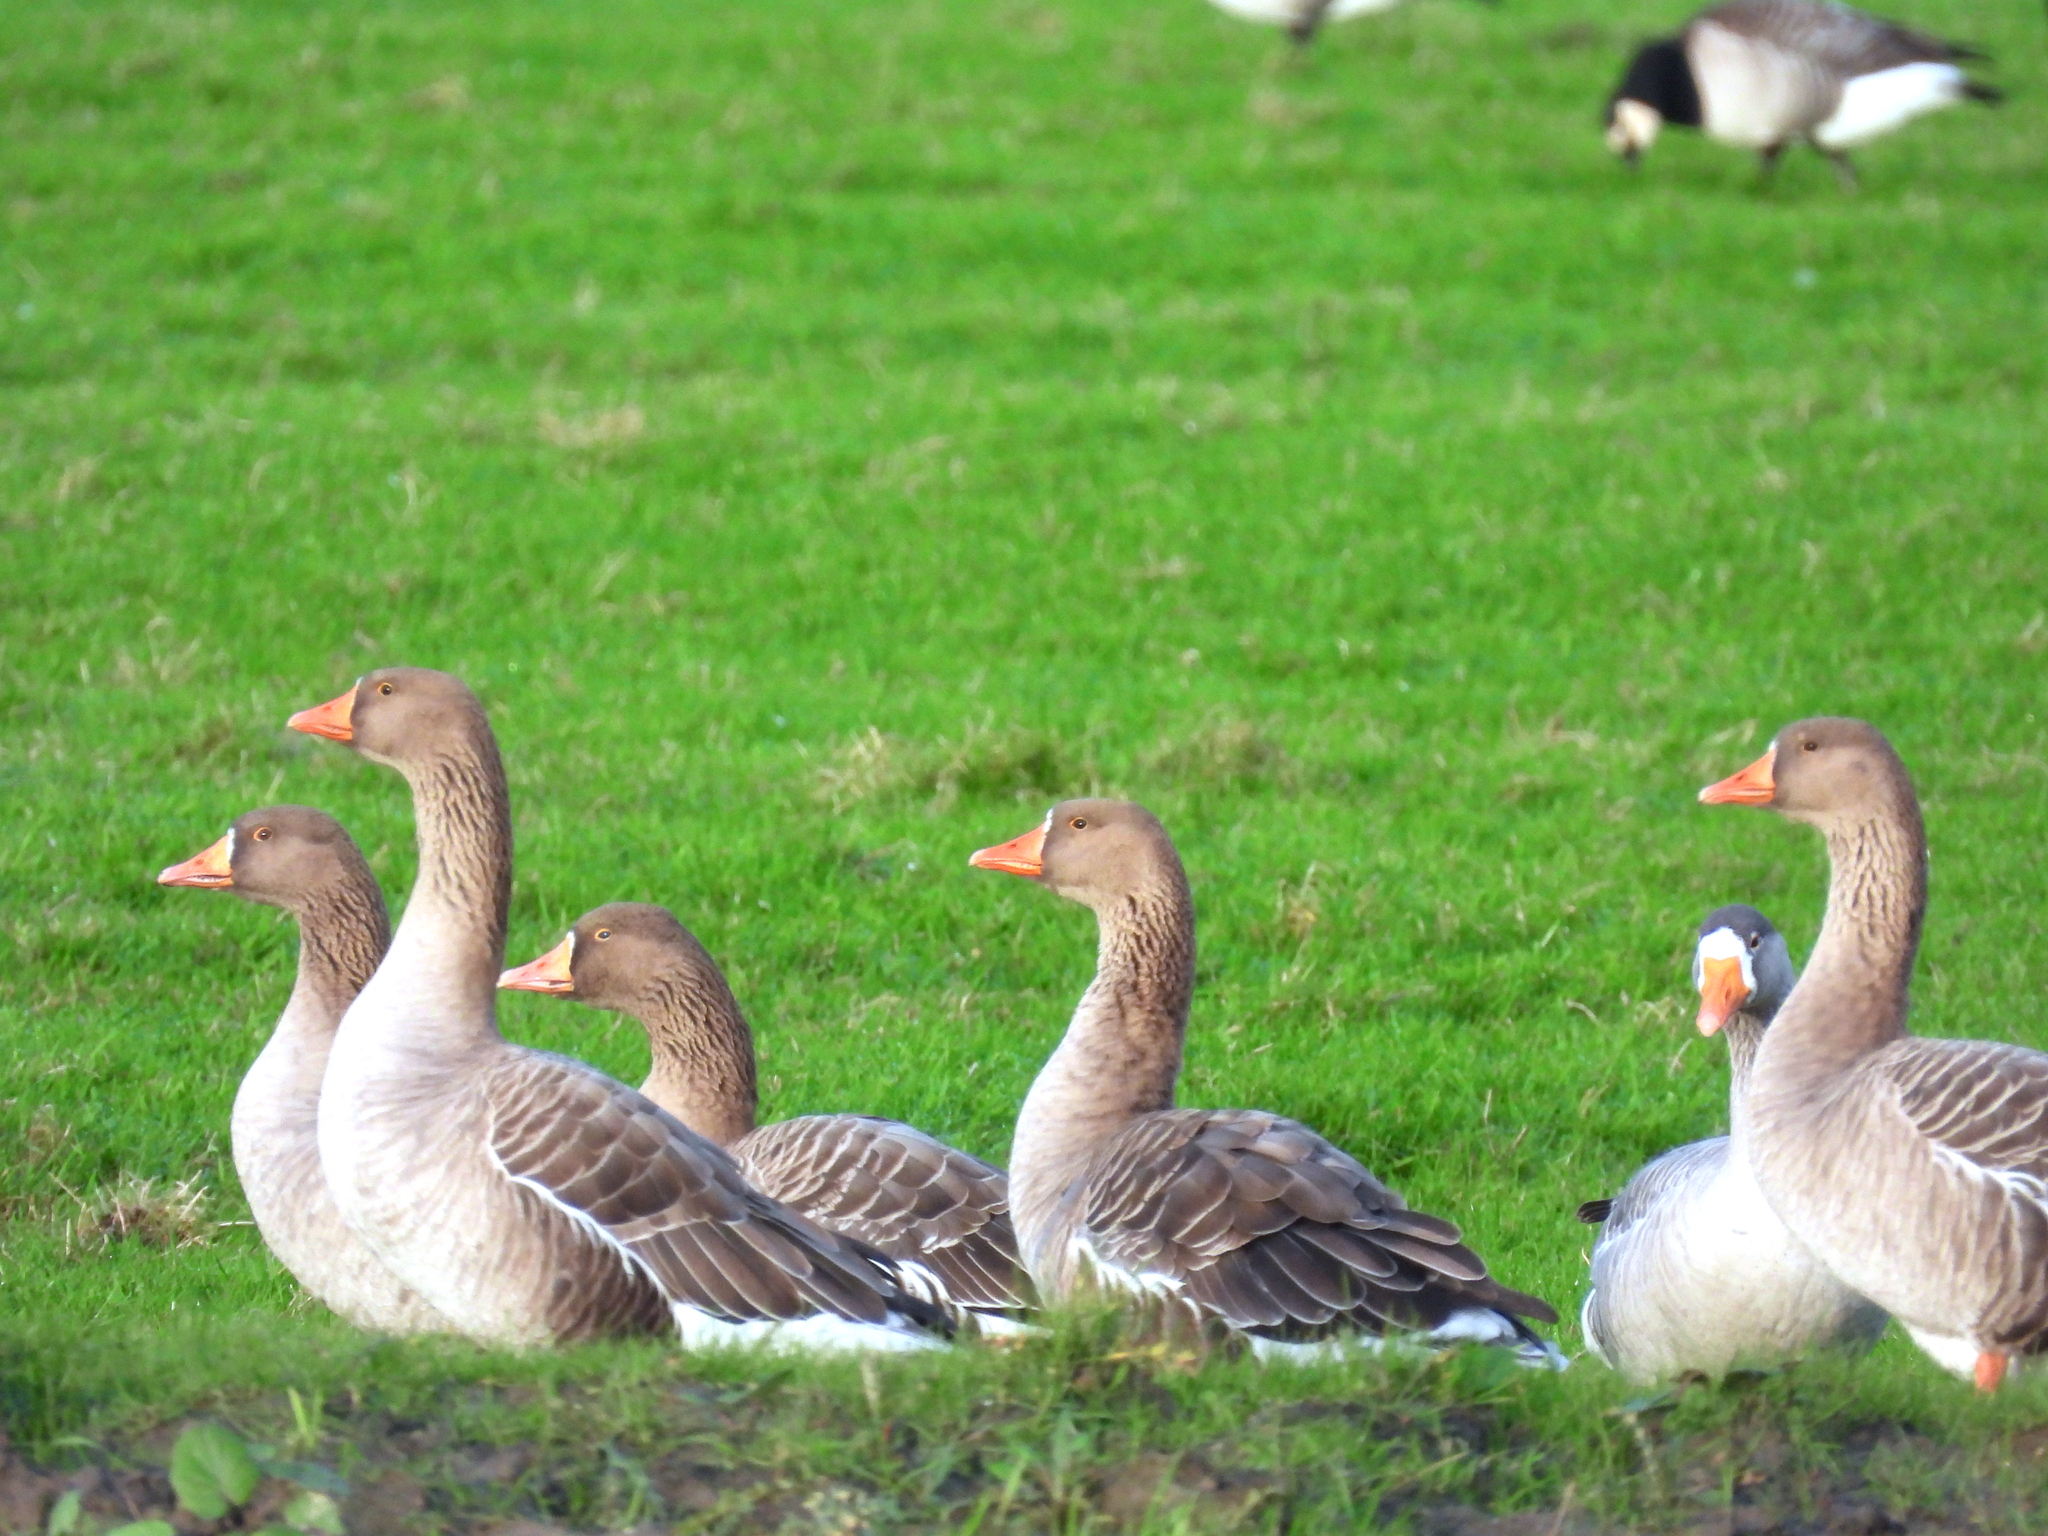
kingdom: Animalia
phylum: Chordata
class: Aves
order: Anseriformes
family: Anatidae
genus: Anser
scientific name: Anser anser
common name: Greylag goose
